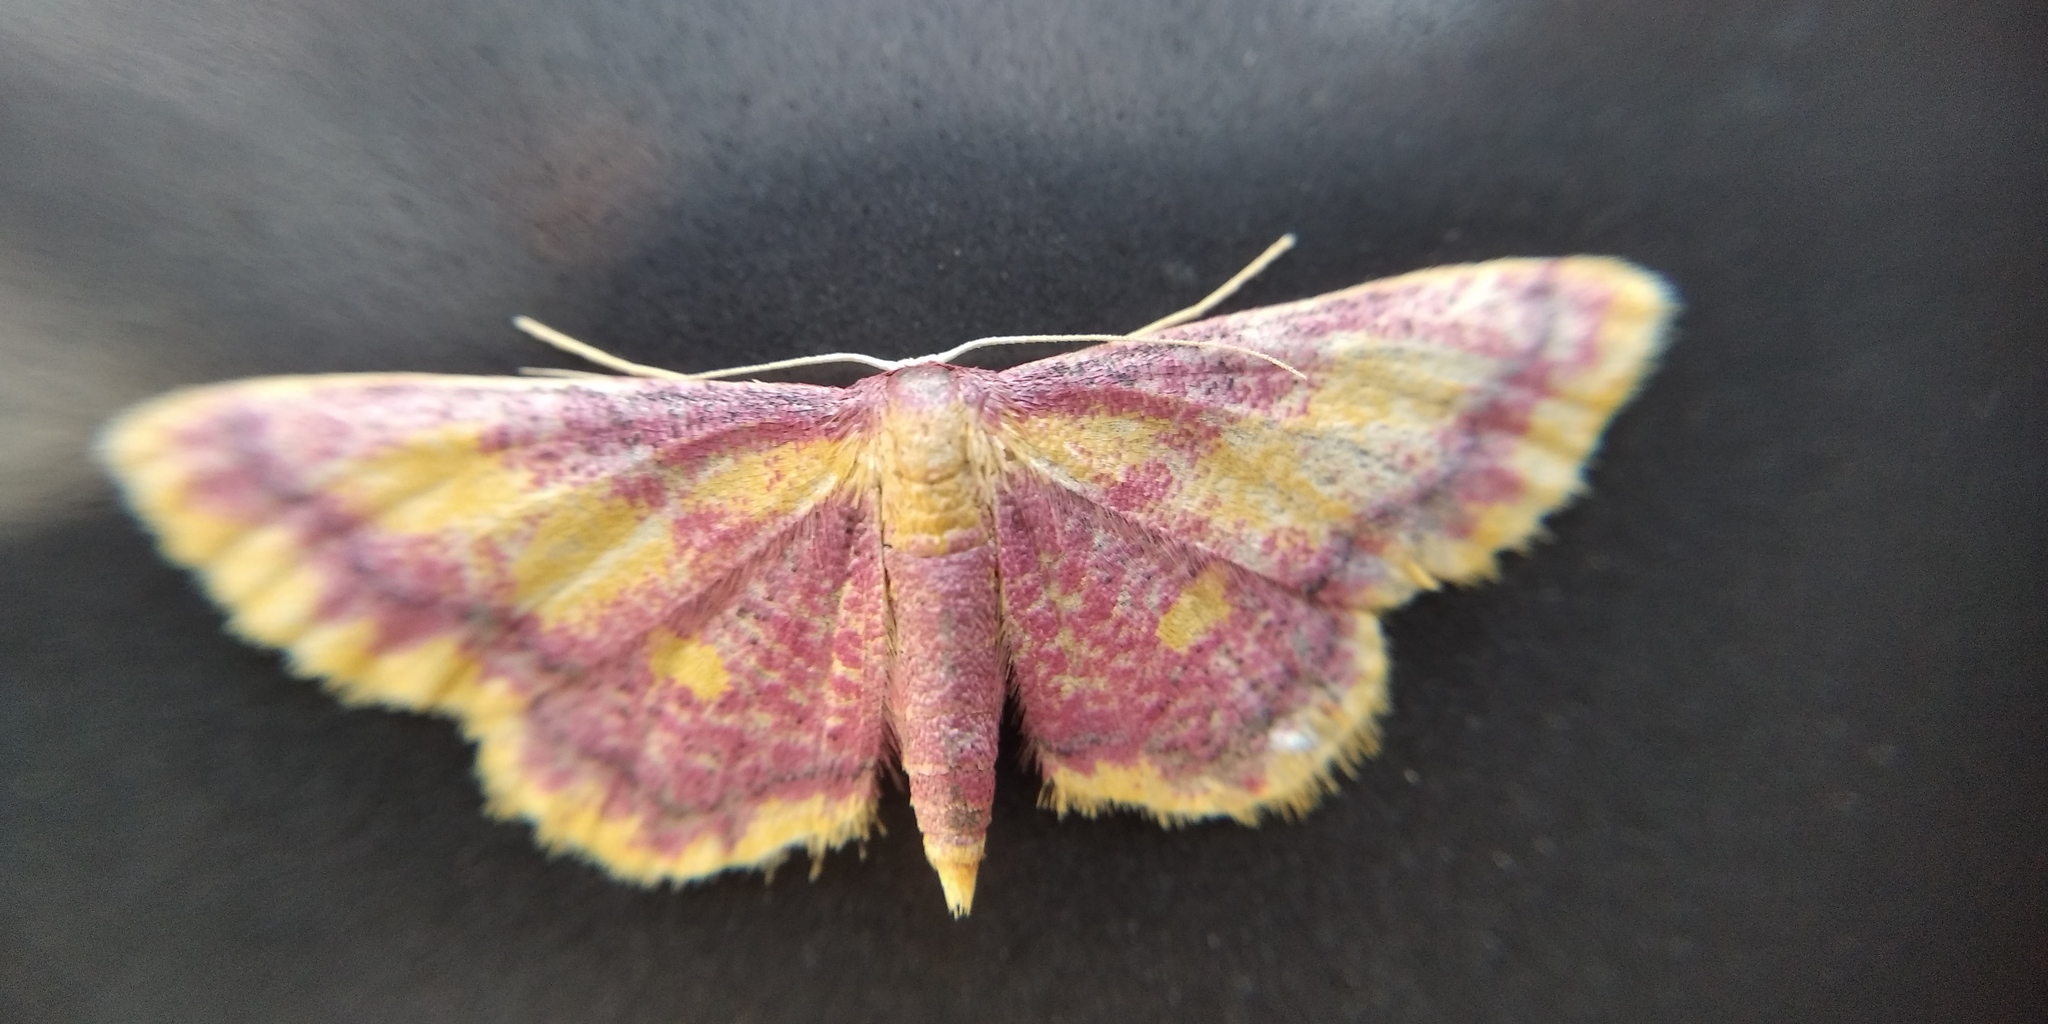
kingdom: Animalia
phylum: Arthropoda
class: Insecta
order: Lepidoptera
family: Geometridae
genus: Idaea
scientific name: Idaea muricata
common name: Purple-bordered gold
